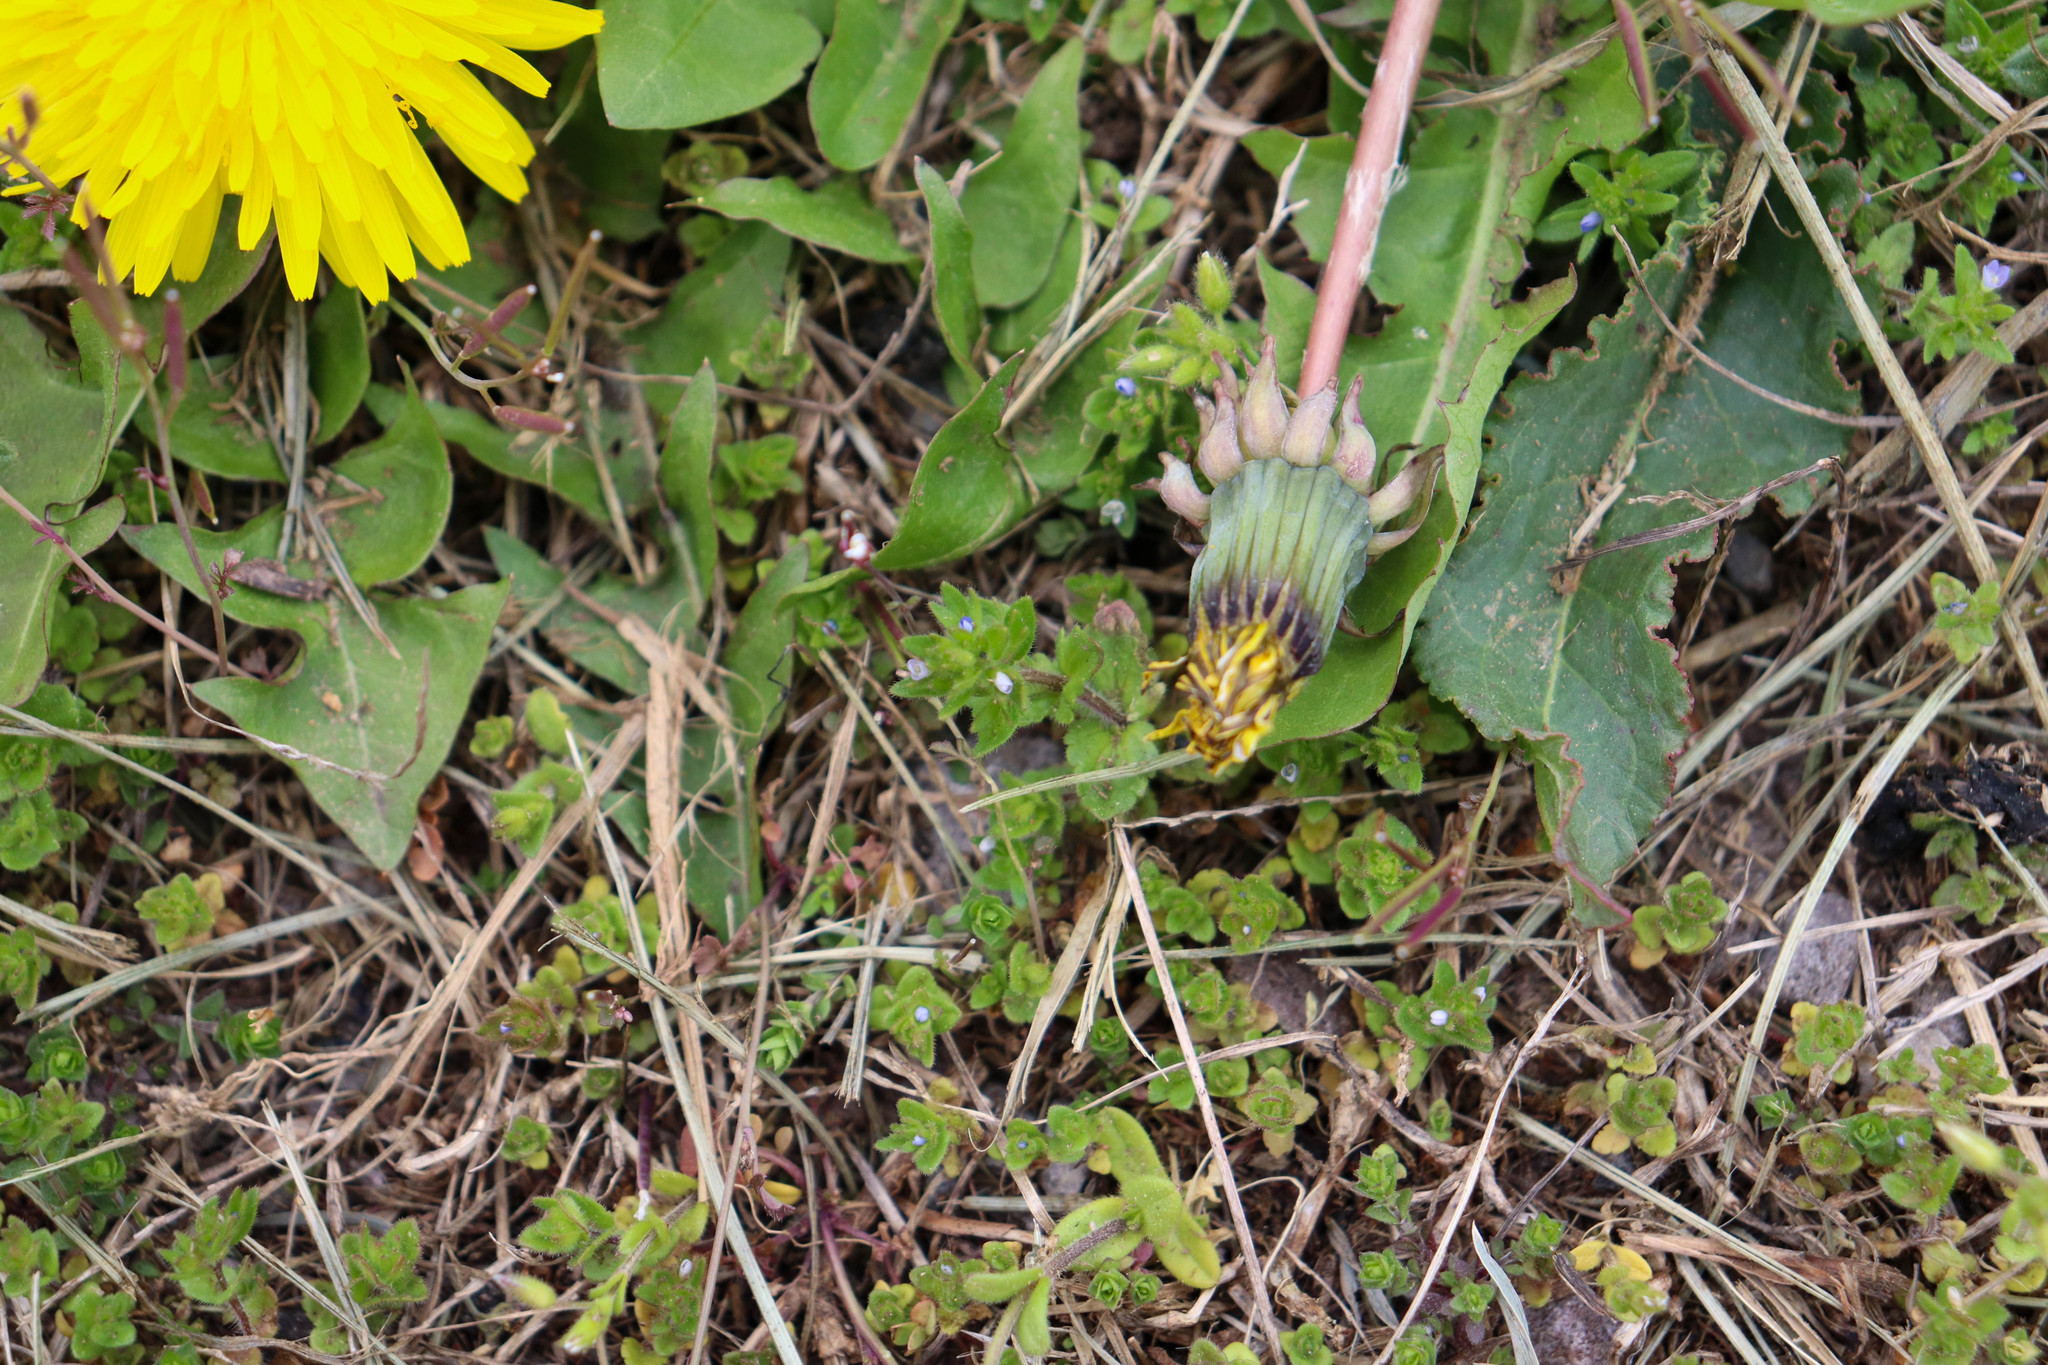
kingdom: Plantae
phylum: Tracheophyta
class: Magnoliopsida
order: Lamiales
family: Plantaginaceae
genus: Veronica
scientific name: Veronica arvensis
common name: Corn speedwell
